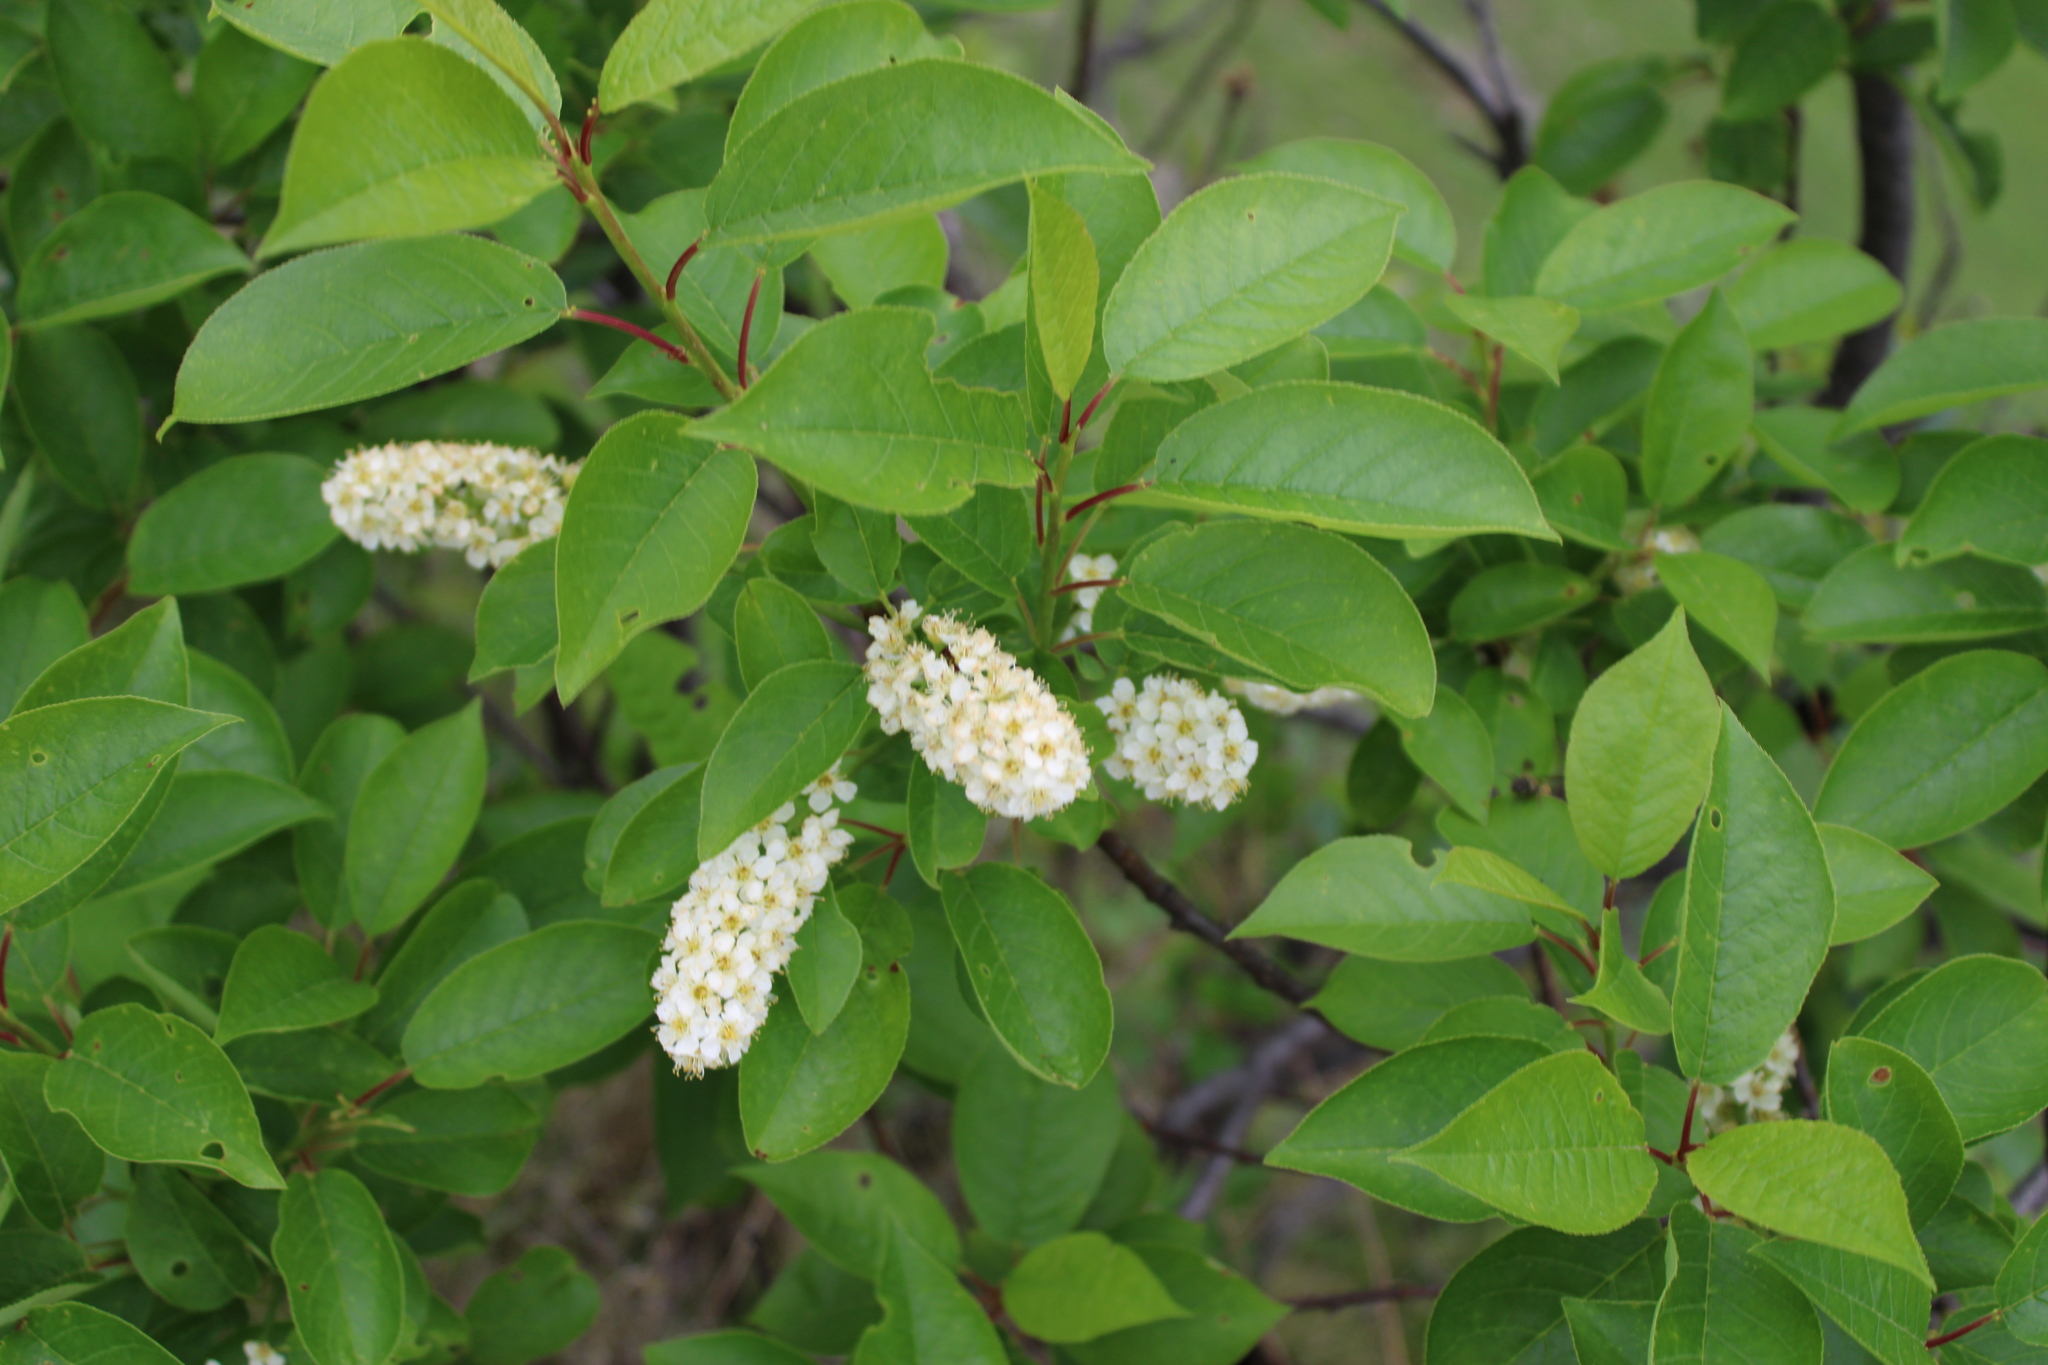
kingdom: Plantae
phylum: Tracheophyta
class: Magnoliopsida
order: Rosales
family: Rosaceae
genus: Prunus
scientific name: Prunus virginiana
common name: Chokecherry
